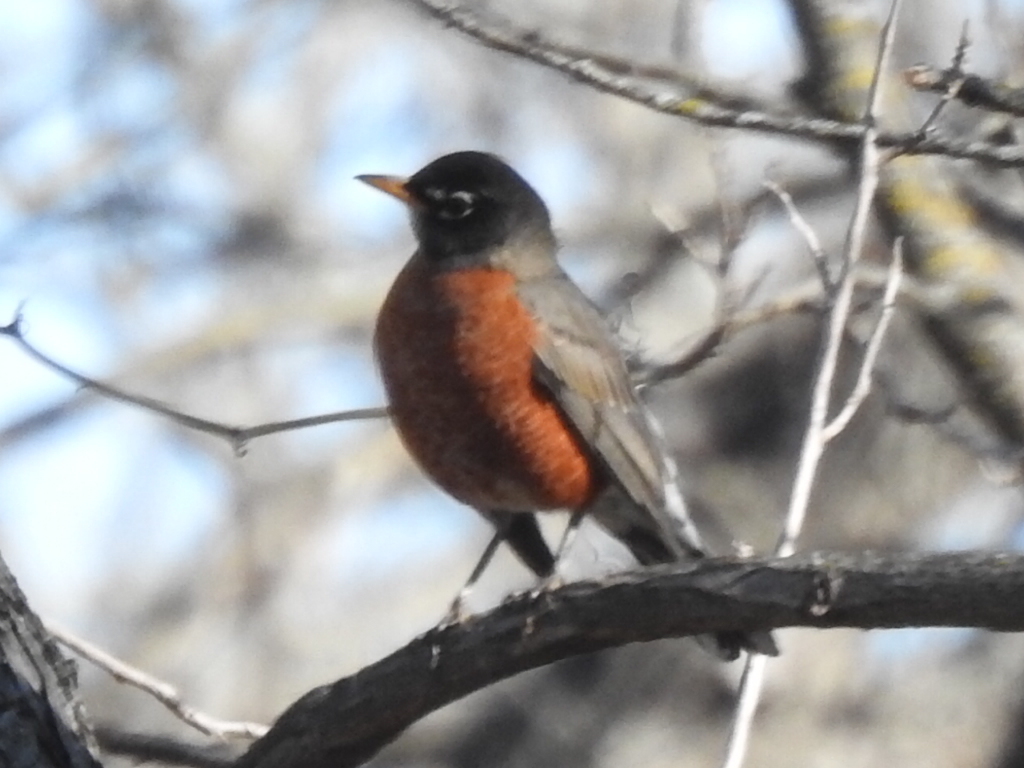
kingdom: Animalia
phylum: Chordata
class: Aves
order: Passeriformes
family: Turdidae
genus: Turdus
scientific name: Turdus migratorius
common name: American robin
